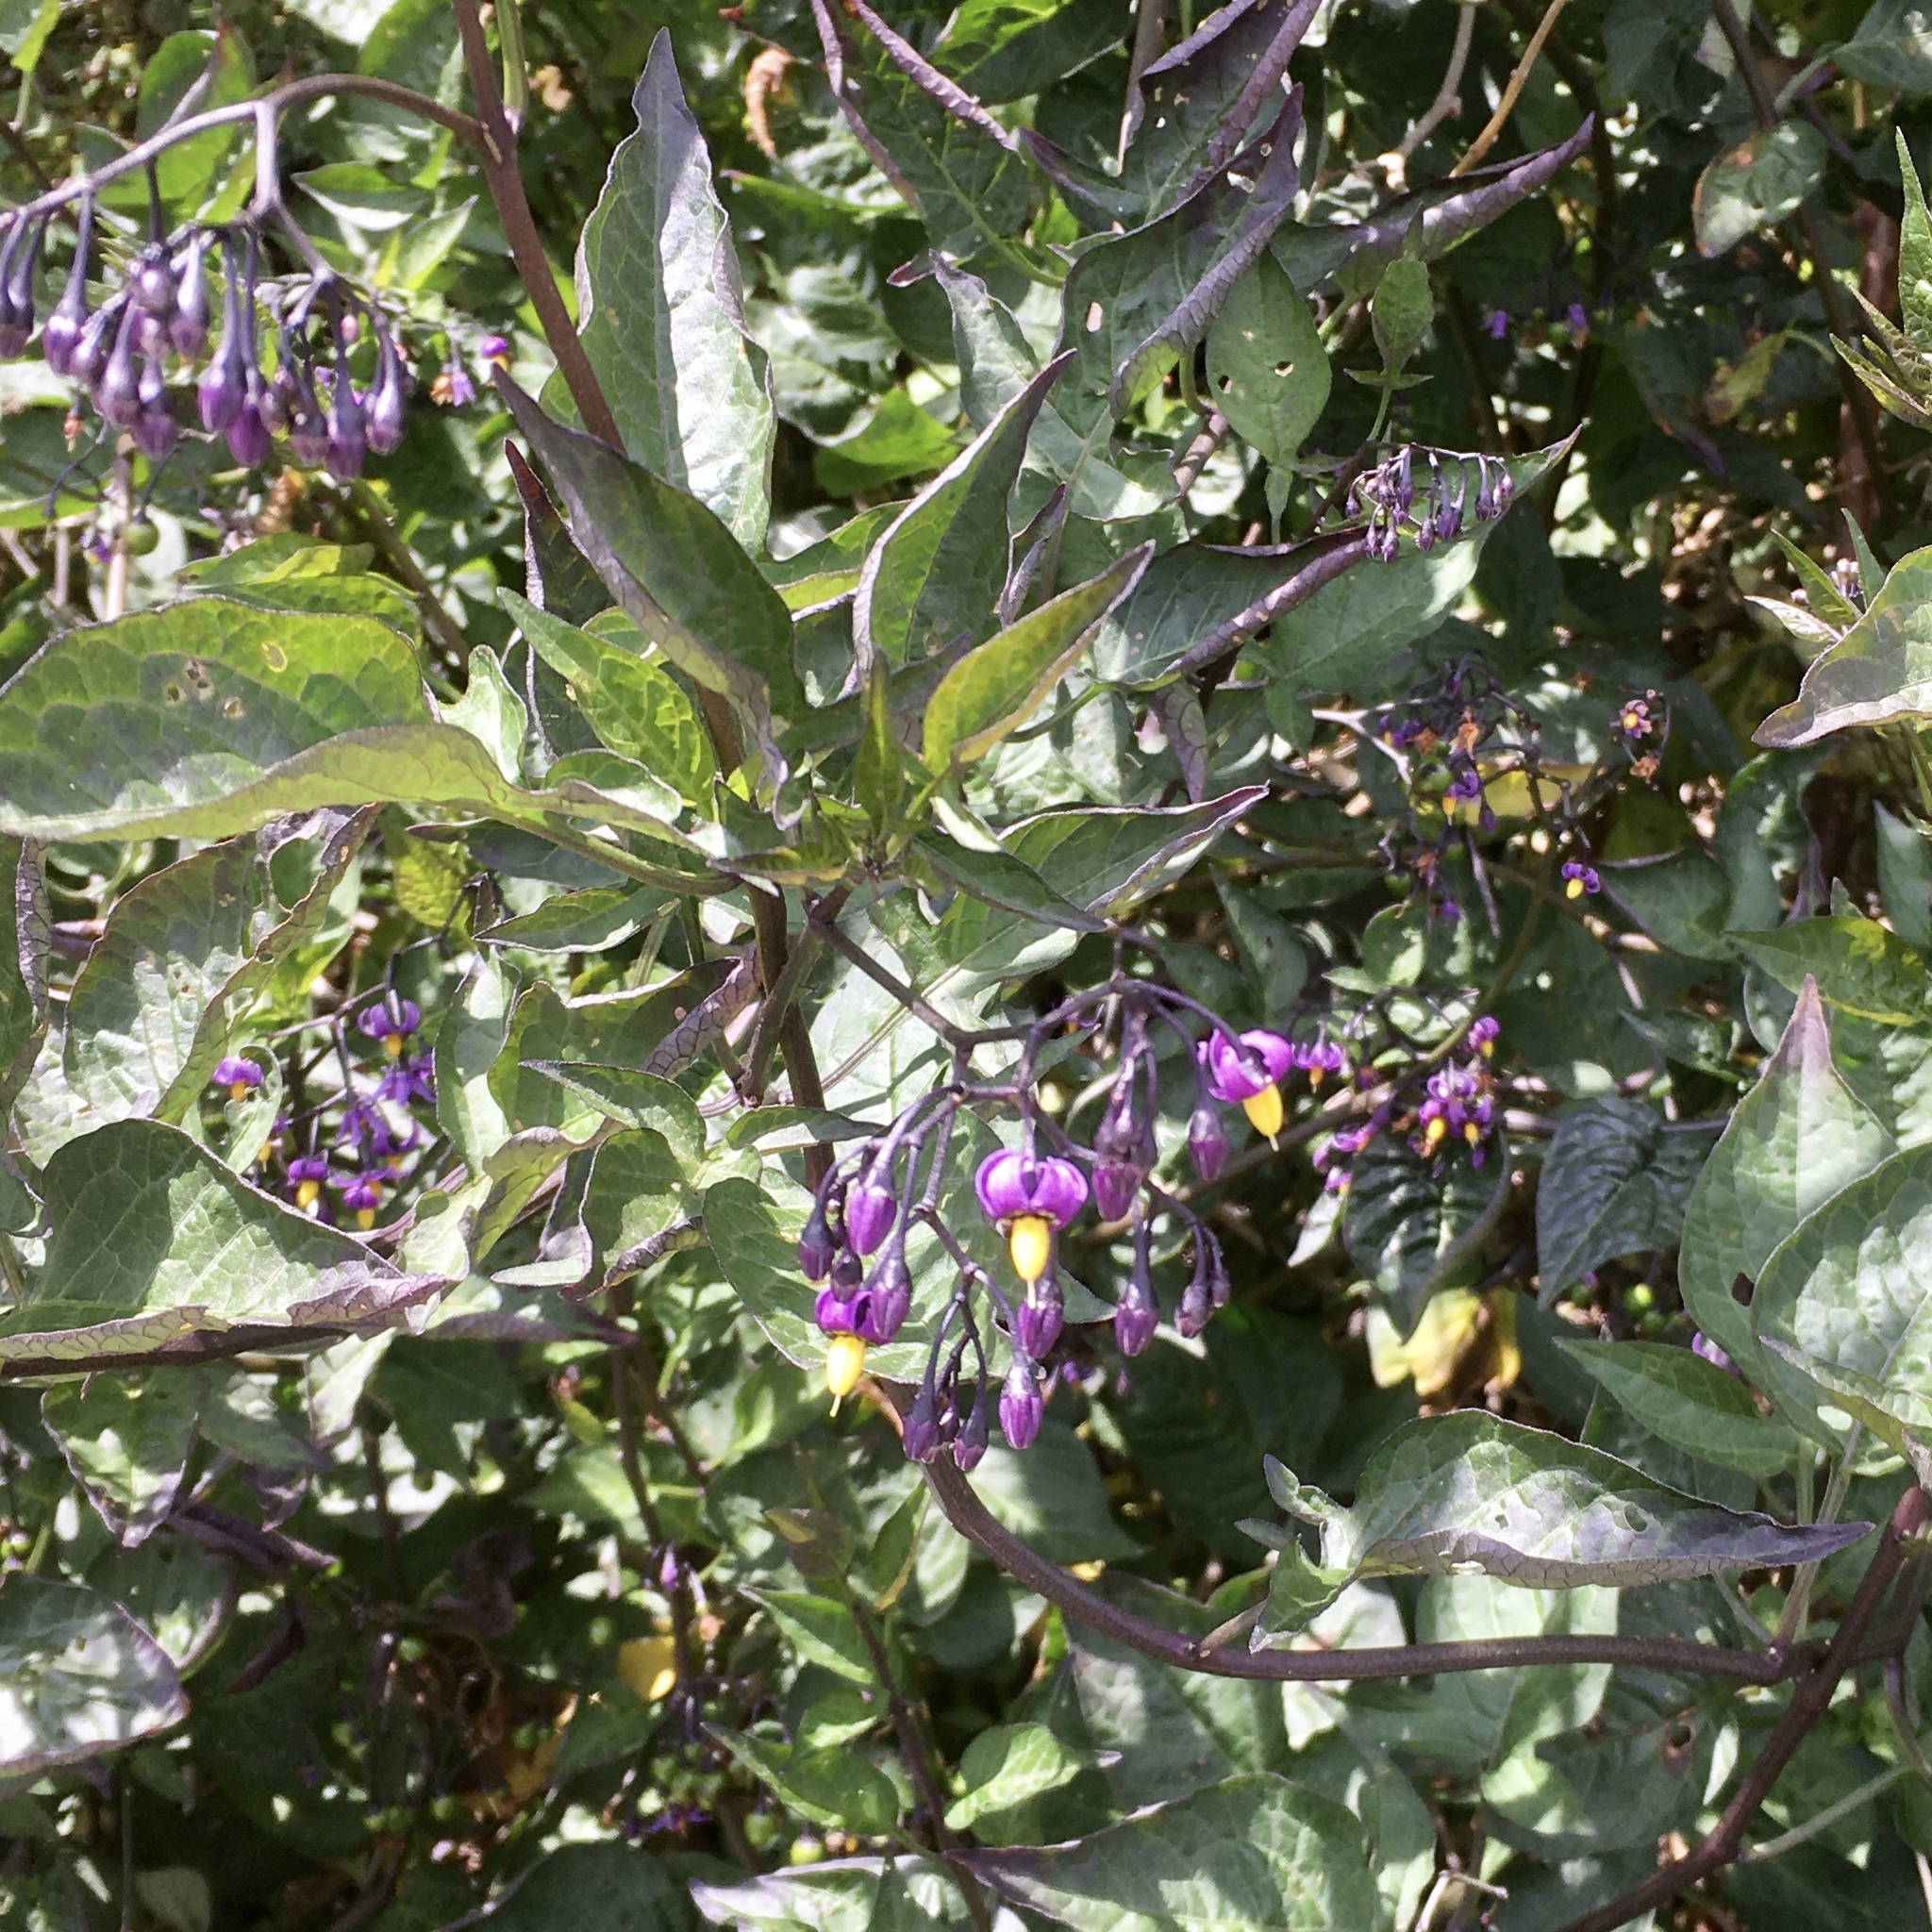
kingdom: Plantae
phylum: Tracheophyta
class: Magnoliopsida
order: Solanales
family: Solanaceae
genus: Solanum
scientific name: Solanum dulcamara
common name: Climbing nightshade
